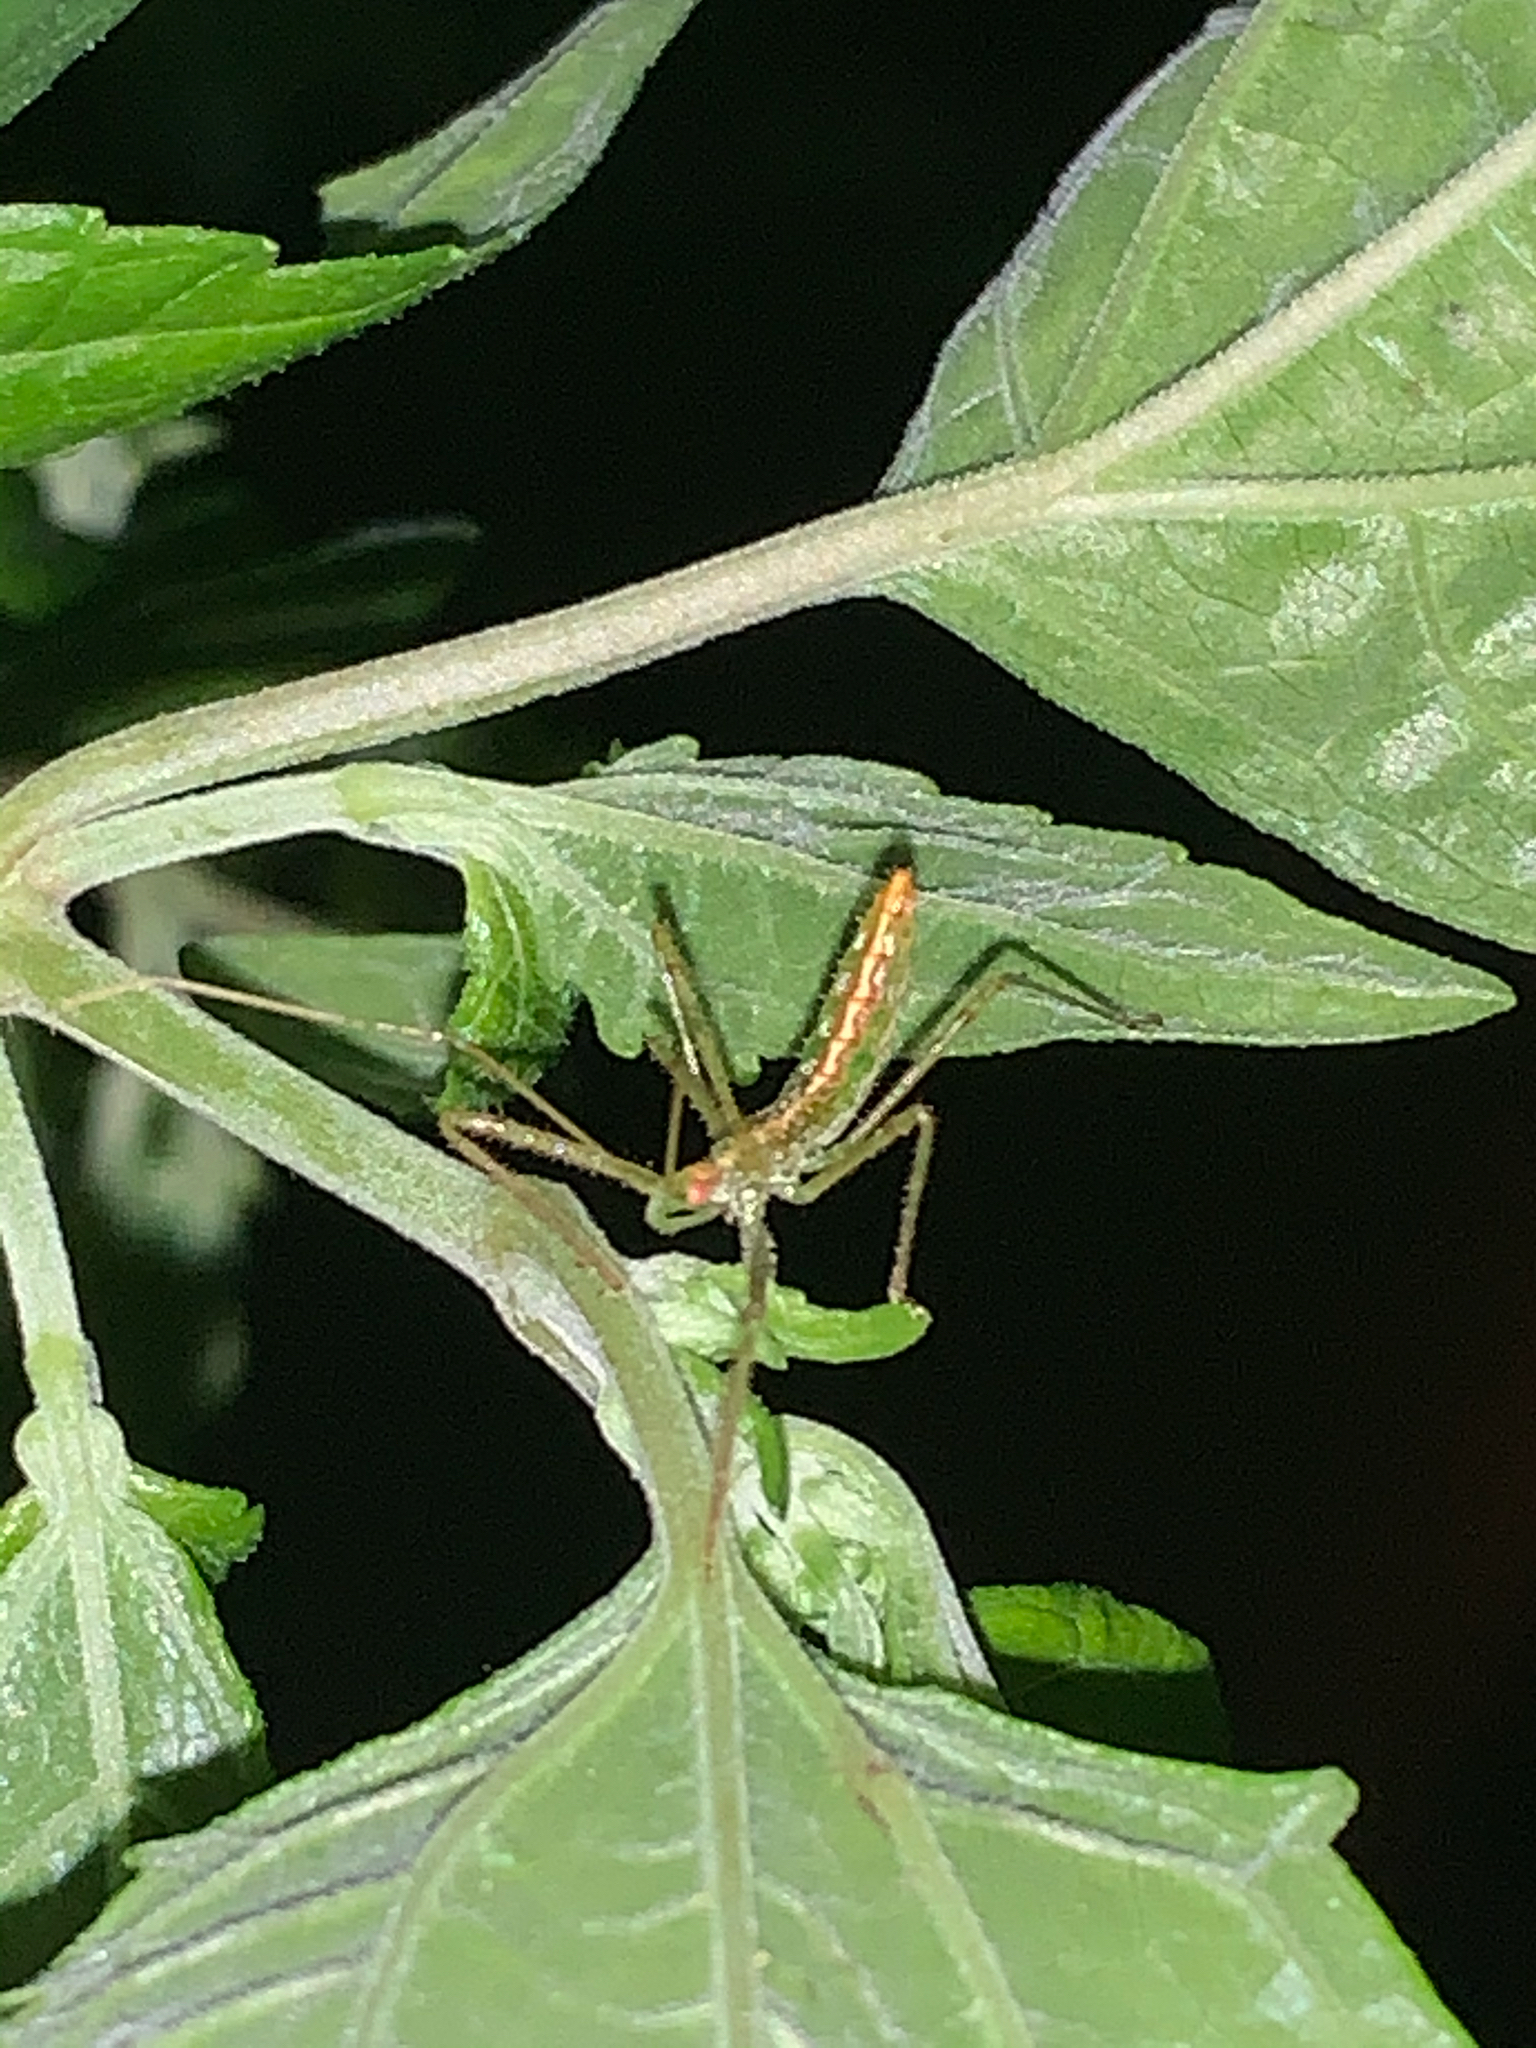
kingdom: Animalia
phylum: Arthropoda
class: Insecta
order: Hemiptera
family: Reduviidae
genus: Zelus
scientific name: Zelus luridus
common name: Pale green assassin bug
